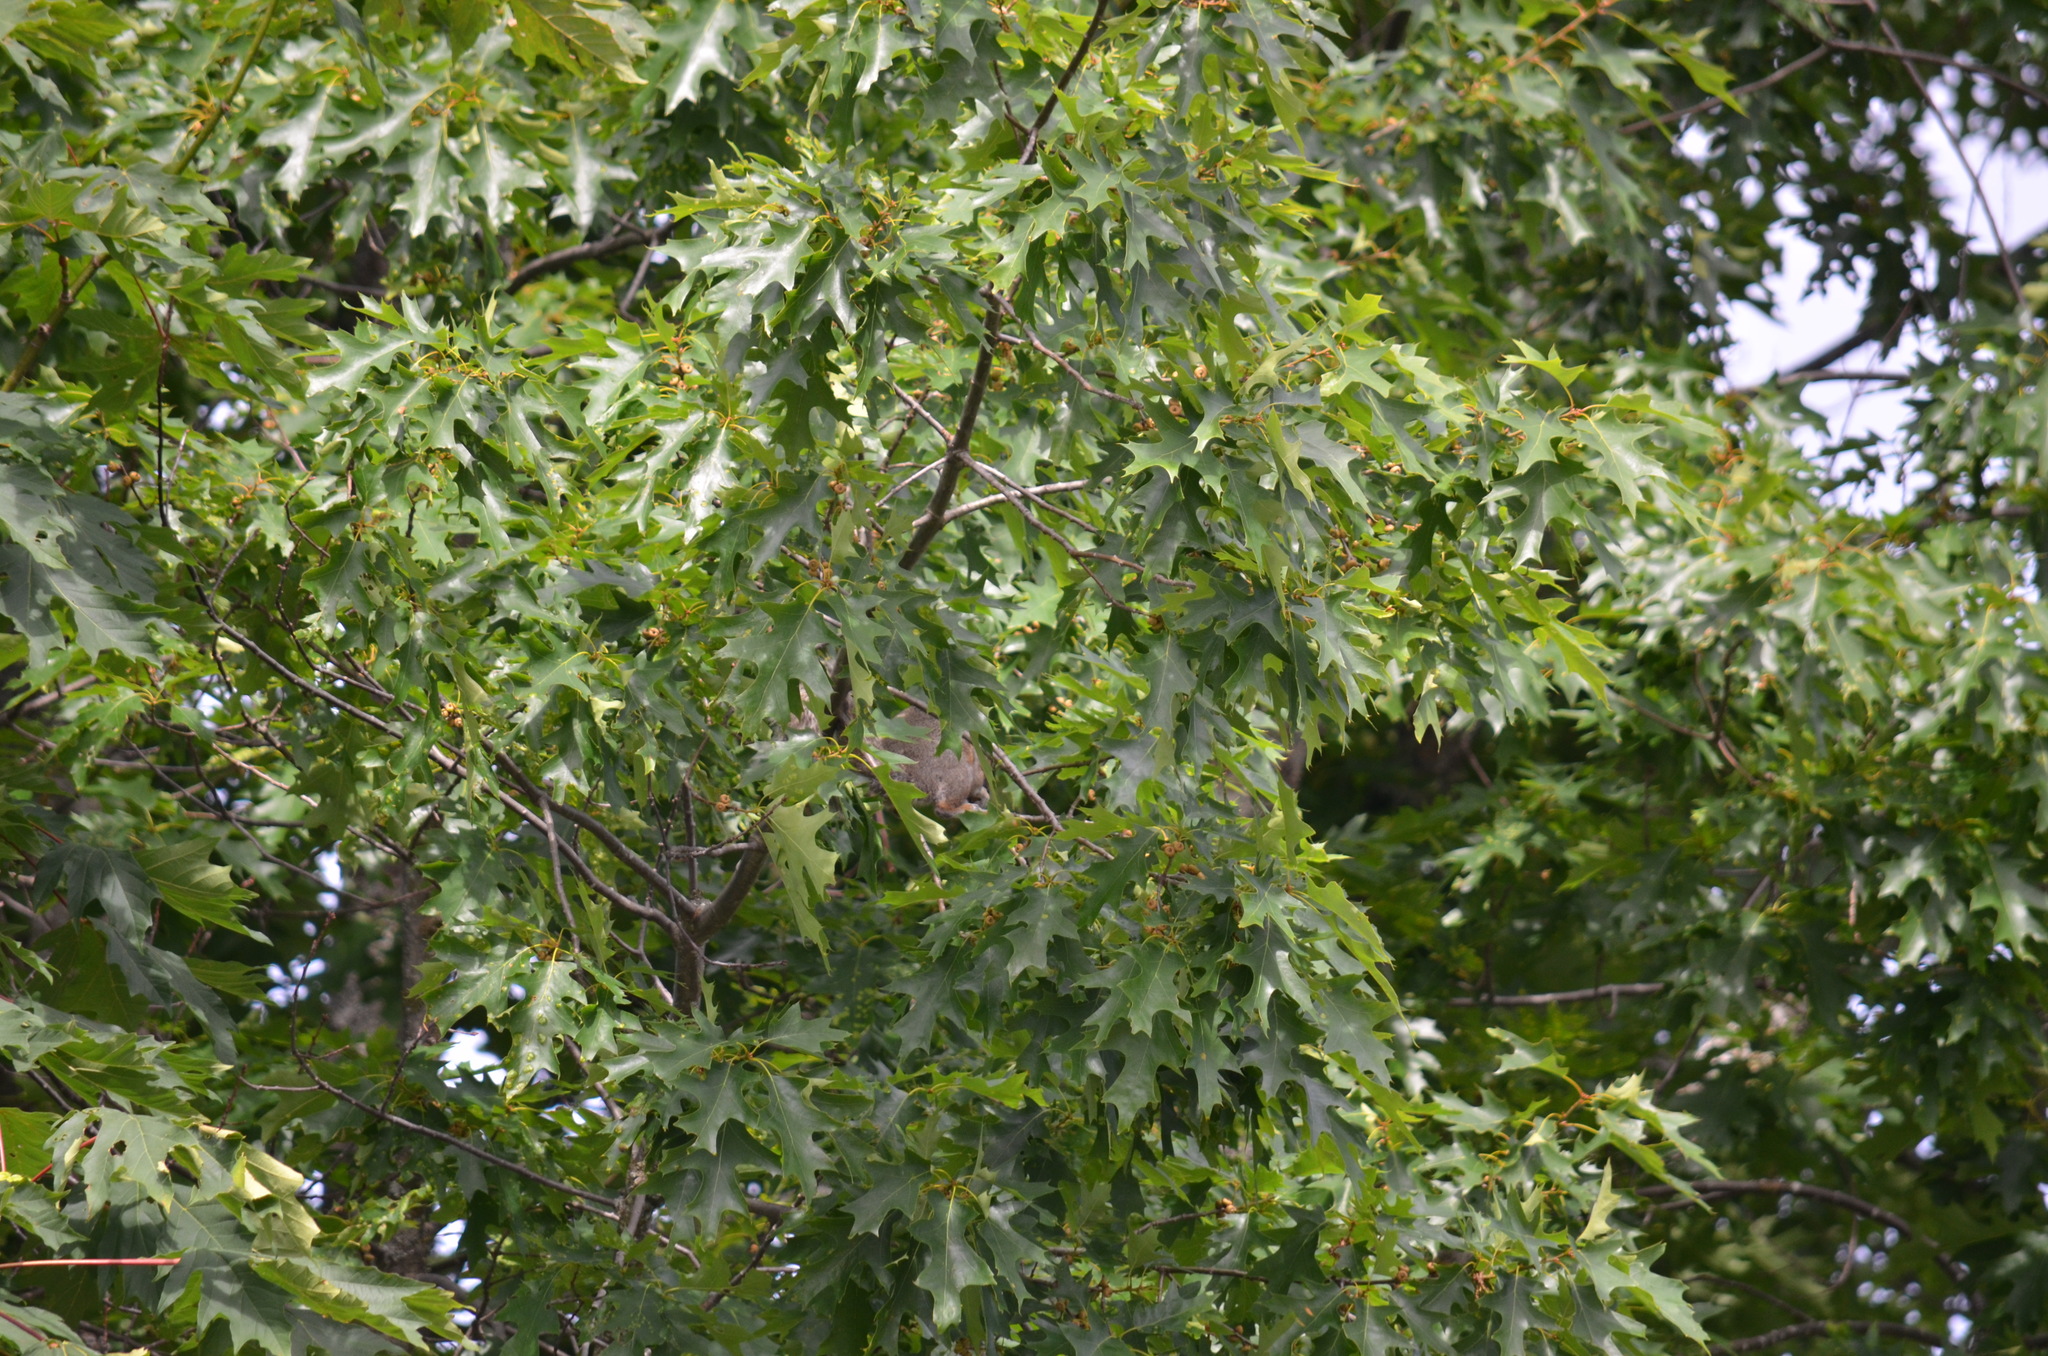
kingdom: Animalia
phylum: Chordata
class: Mammalia
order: Rodentia
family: Sciuridae
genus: Sciurus
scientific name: Sciurus carolinensis
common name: Eastern gray squirrel
